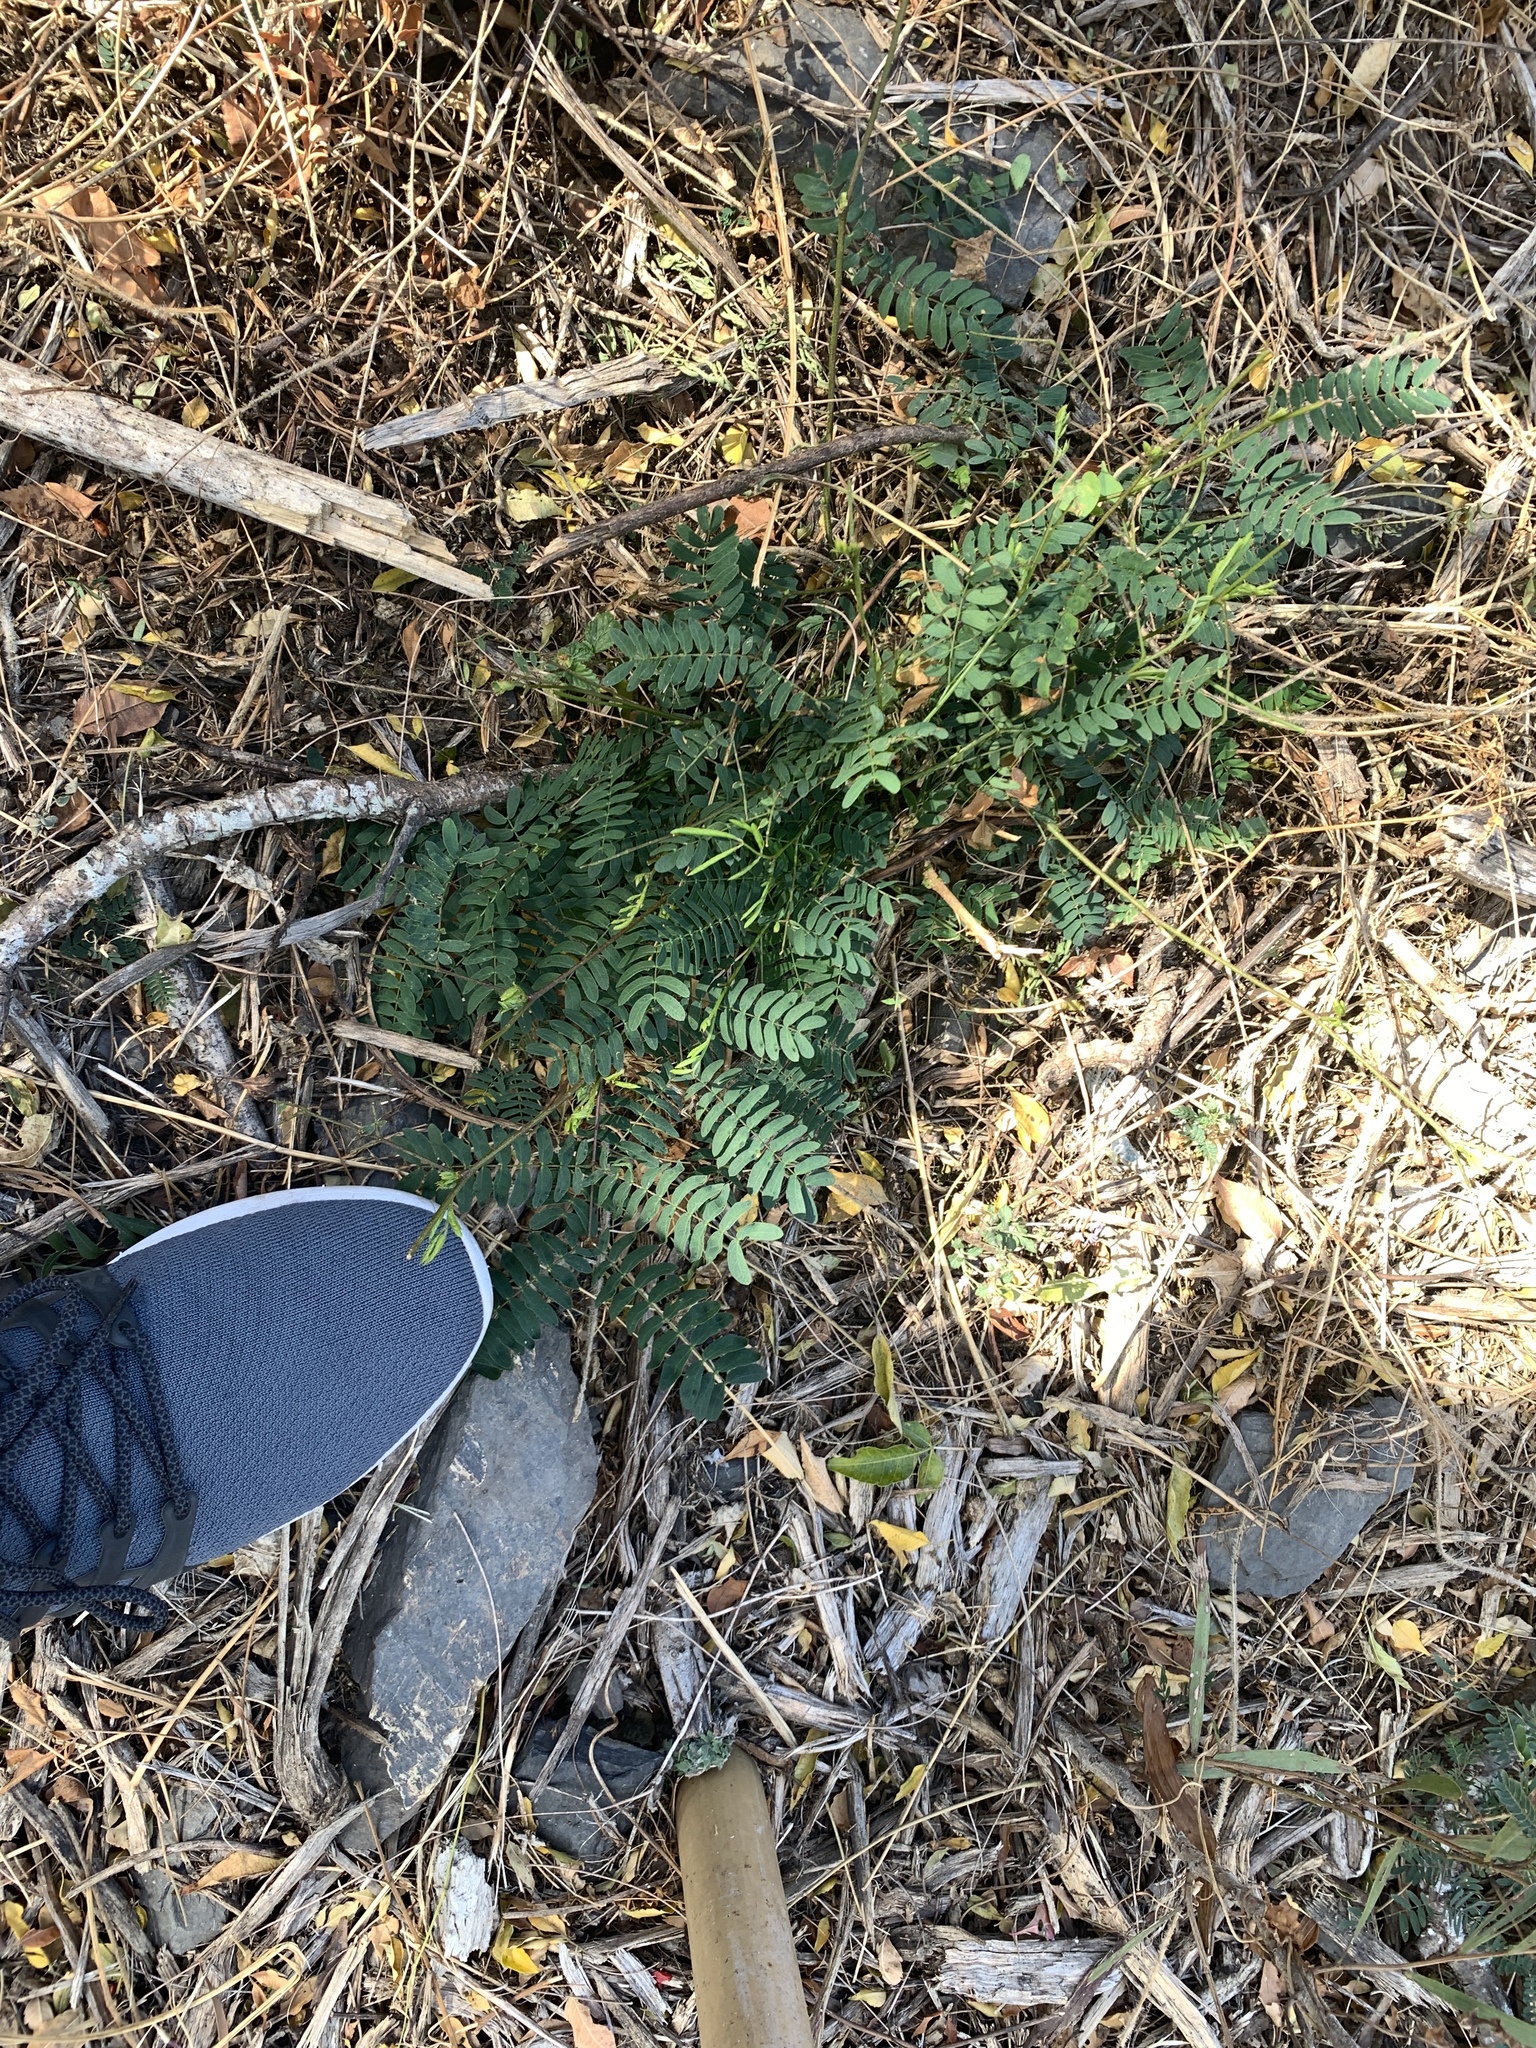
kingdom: Plantae
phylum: Tracheophyta
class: Magnoliopsida
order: Fabales
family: Fabaceae
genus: Leucaena
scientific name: Leucaena leucocephala
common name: White leadtree
